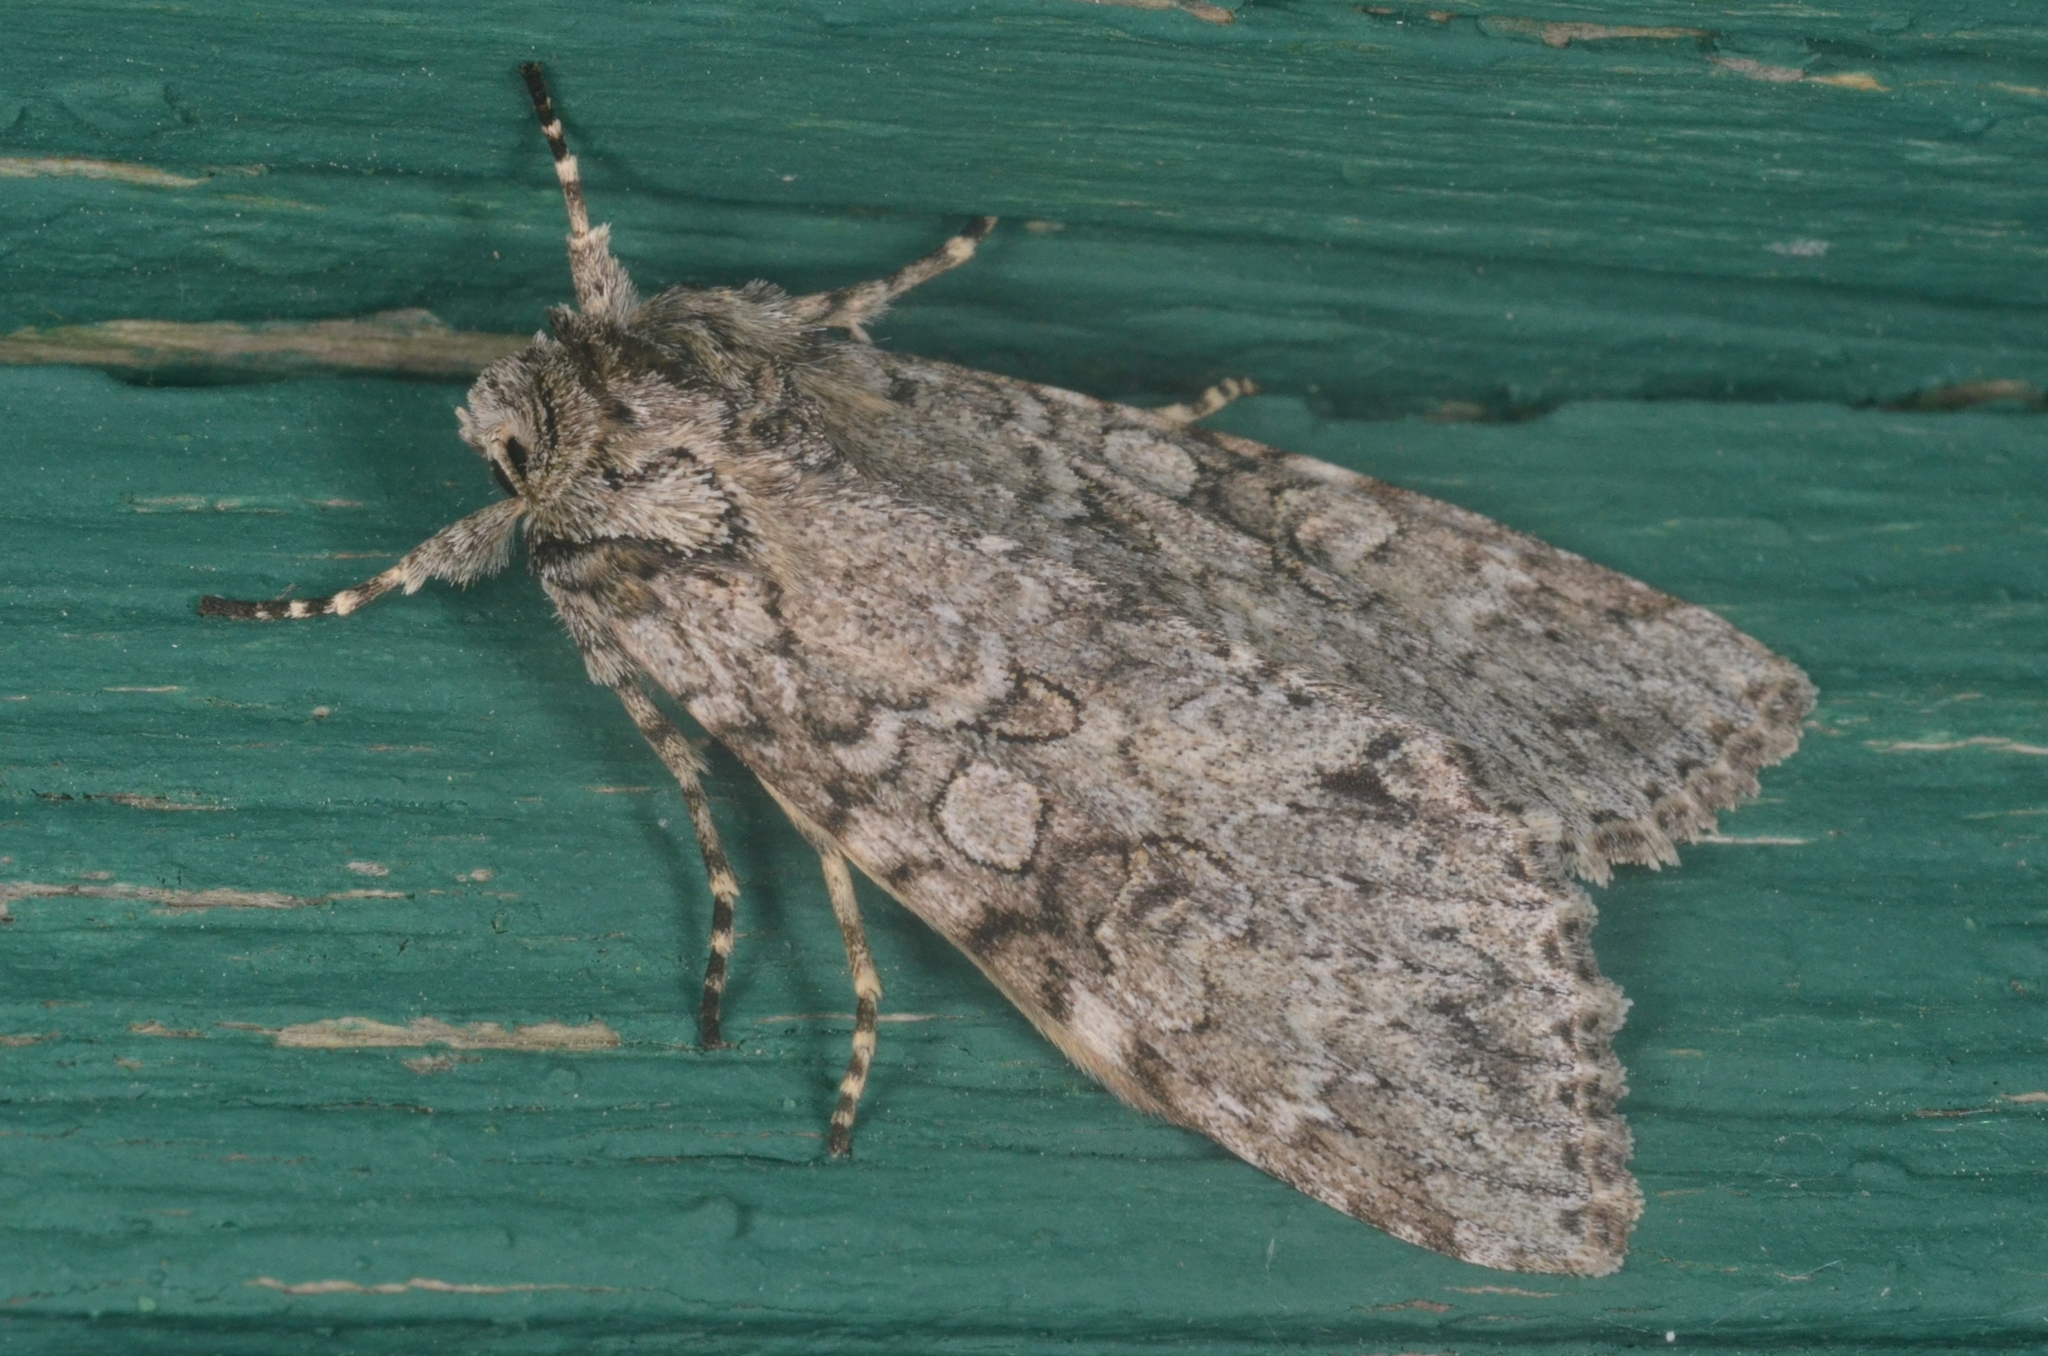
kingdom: Animalia
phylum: Arthropoda
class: Insecta
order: Lepidoptera
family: Noctuidae
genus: Polia
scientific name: Polia nebulosa
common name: Grey arches
